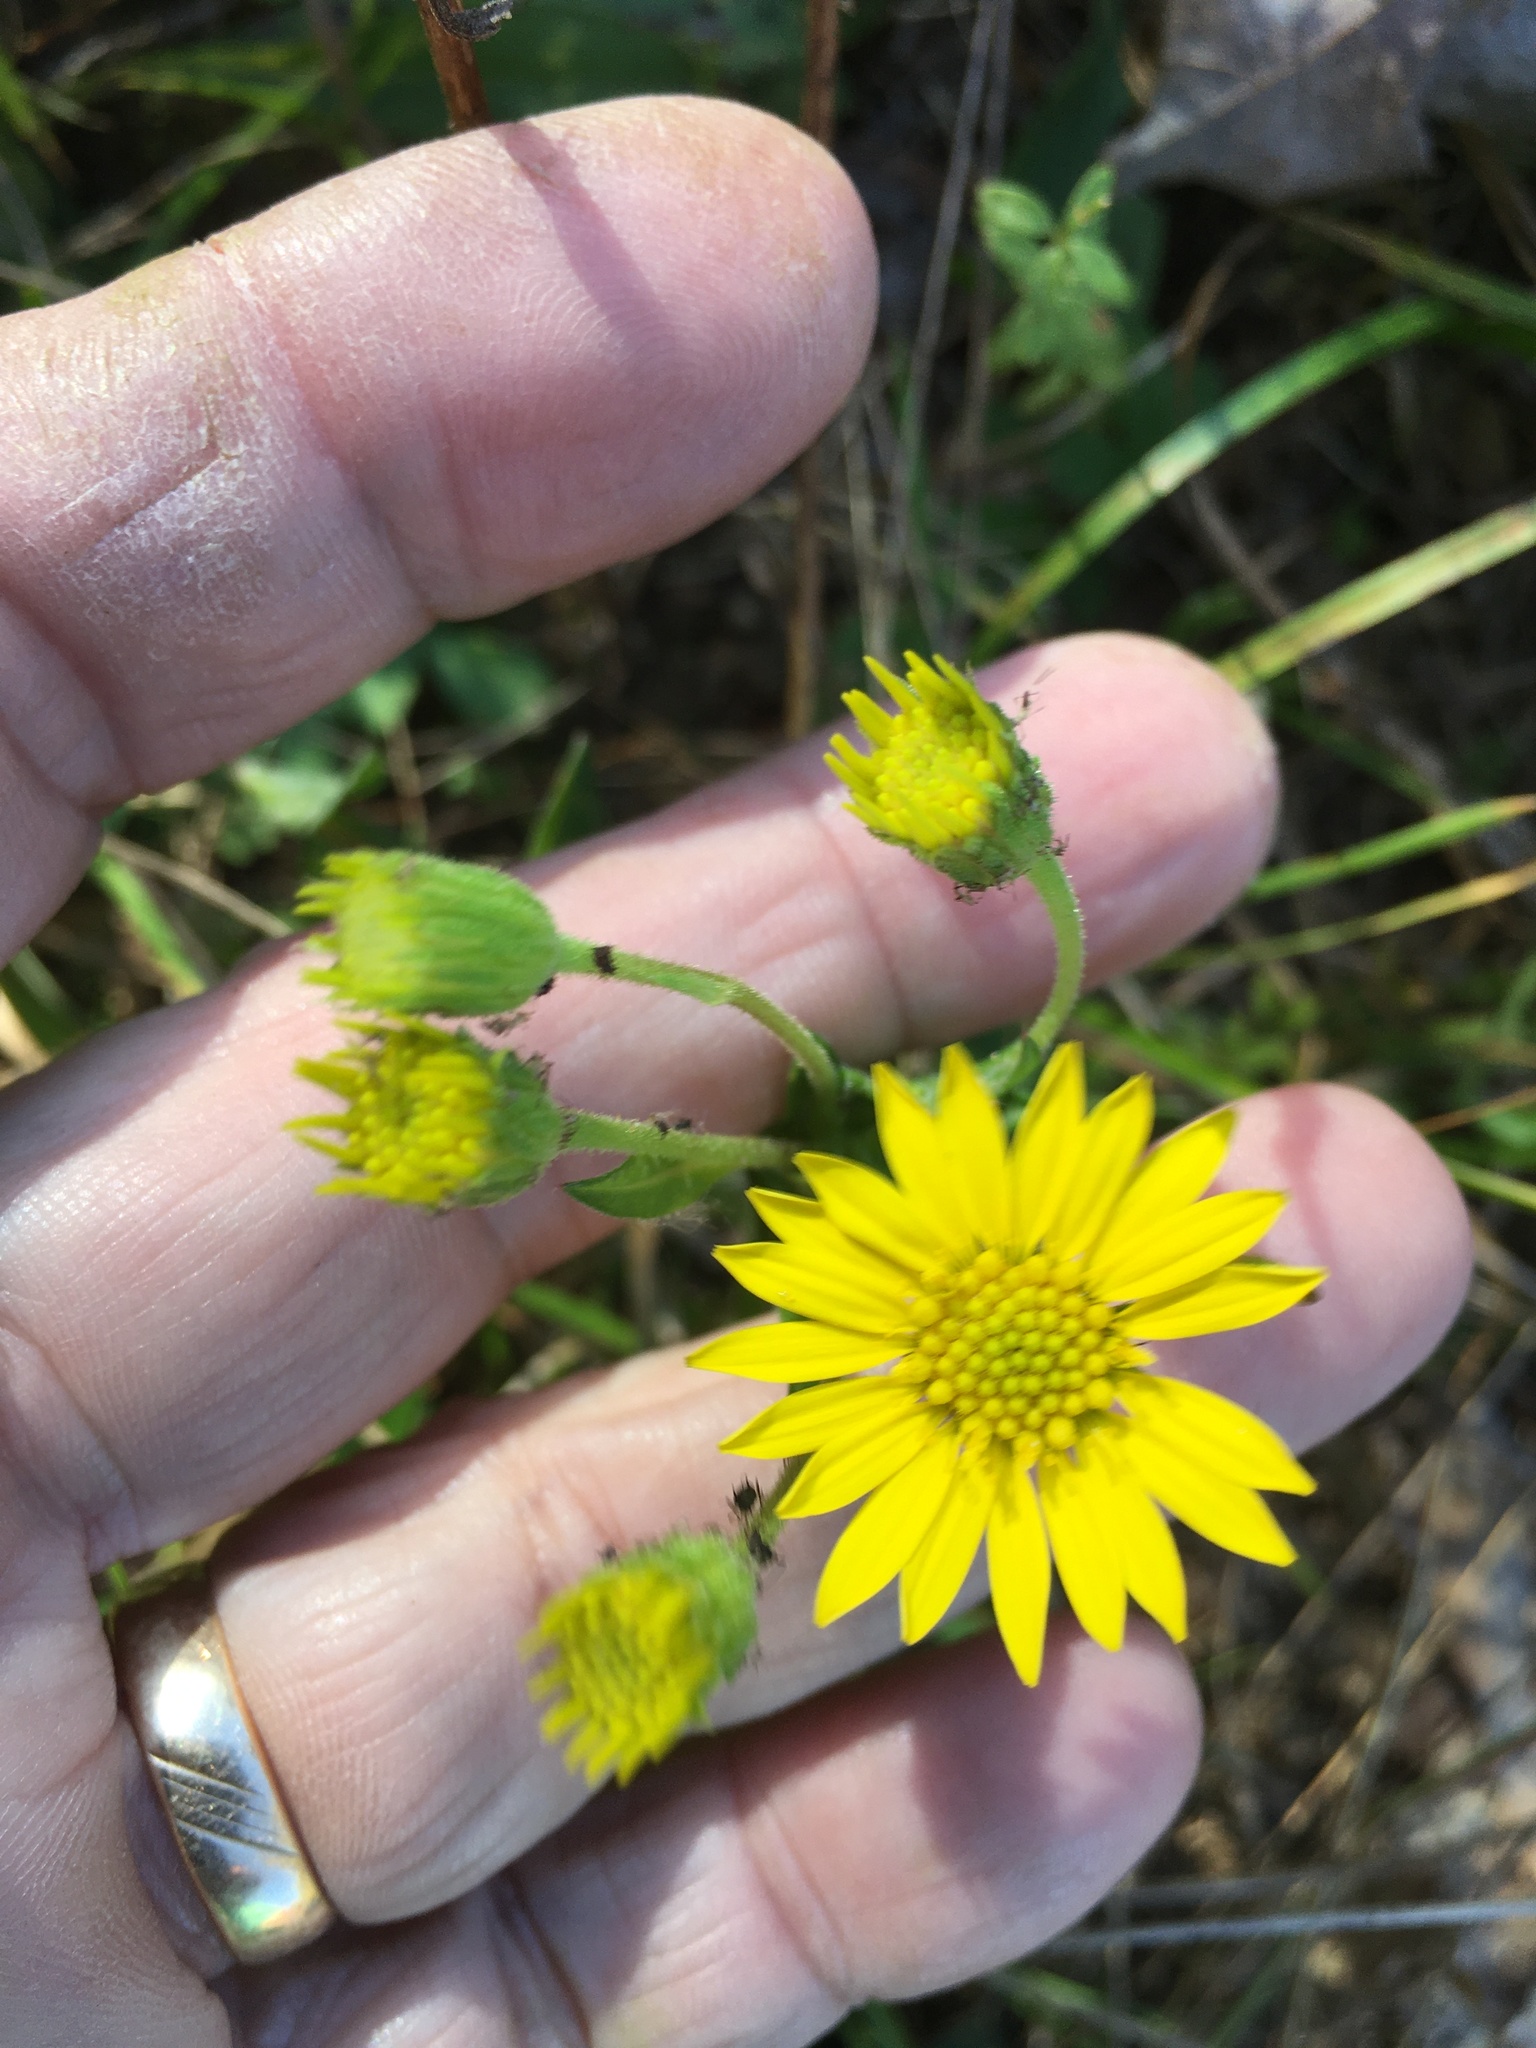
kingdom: Plantae
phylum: Tracheophyta
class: Magnoliopsida
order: Asterales
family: Asteraceae
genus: Chrysopsis
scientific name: Chrysopsis mariana
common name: Maryland golden-aster
